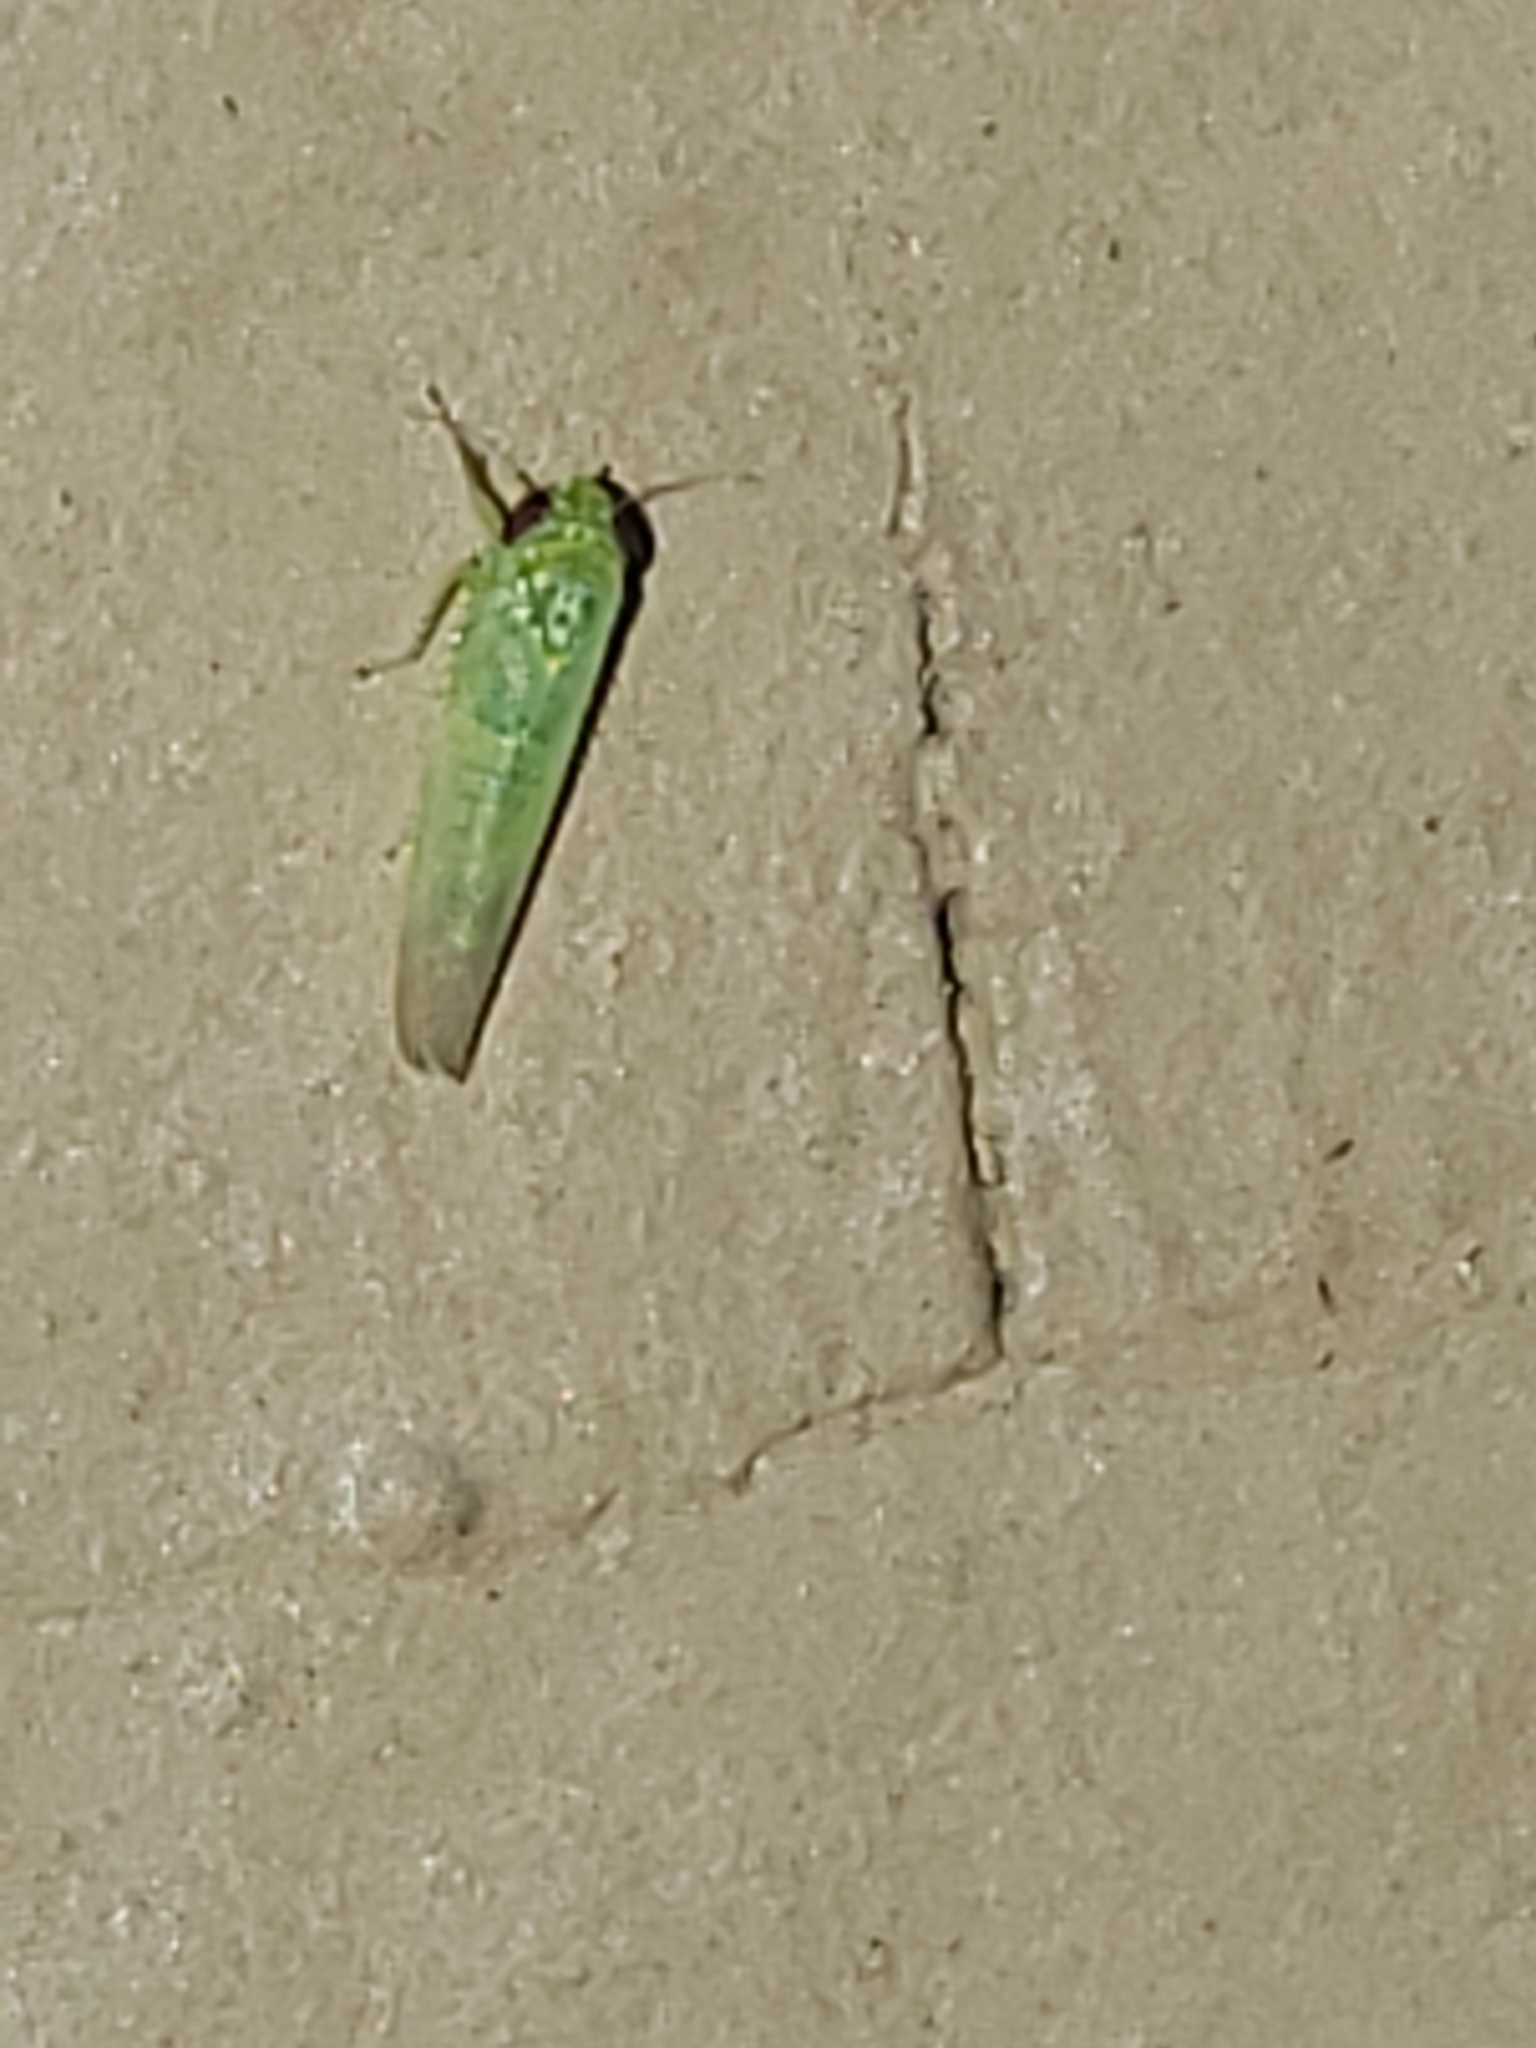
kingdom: Animalia
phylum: Arthropoda
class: Insecta
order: Hemiptera
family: Cicadellidae
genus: Empoasca
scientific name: Empoasca fabae
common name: Potato leafhopper
